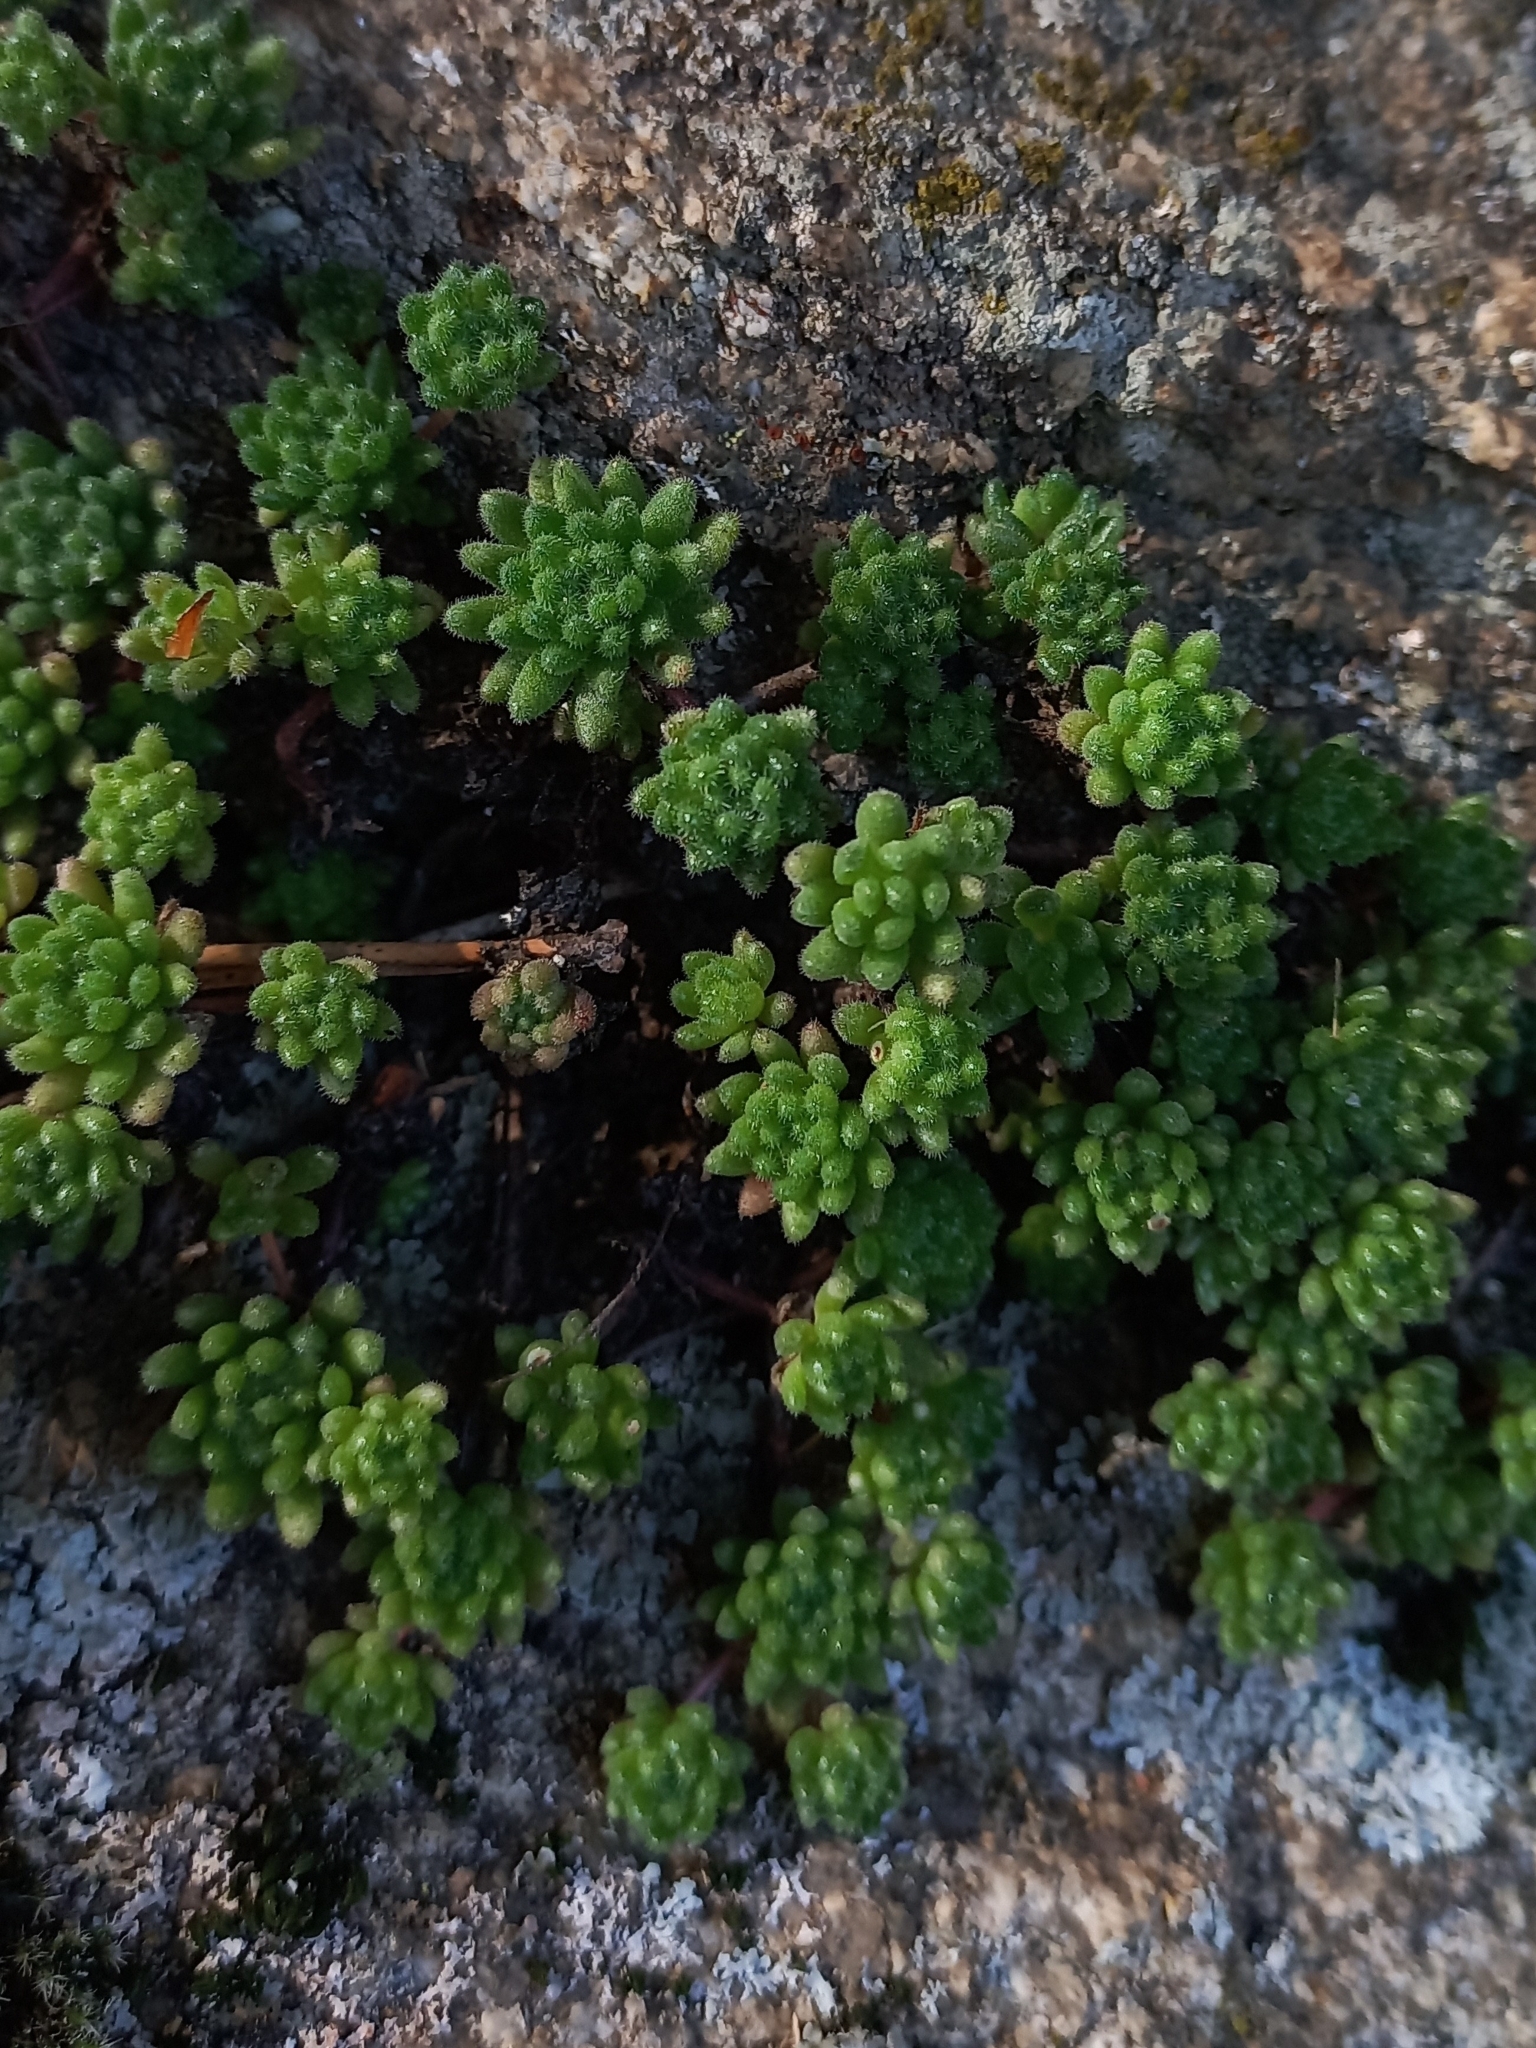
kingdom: Plantae
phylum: Tracheophyta
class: Magnoliopsida
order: Saxifragales
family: Crassulaceae
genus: Sedum
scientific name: Sedum hirsutum
